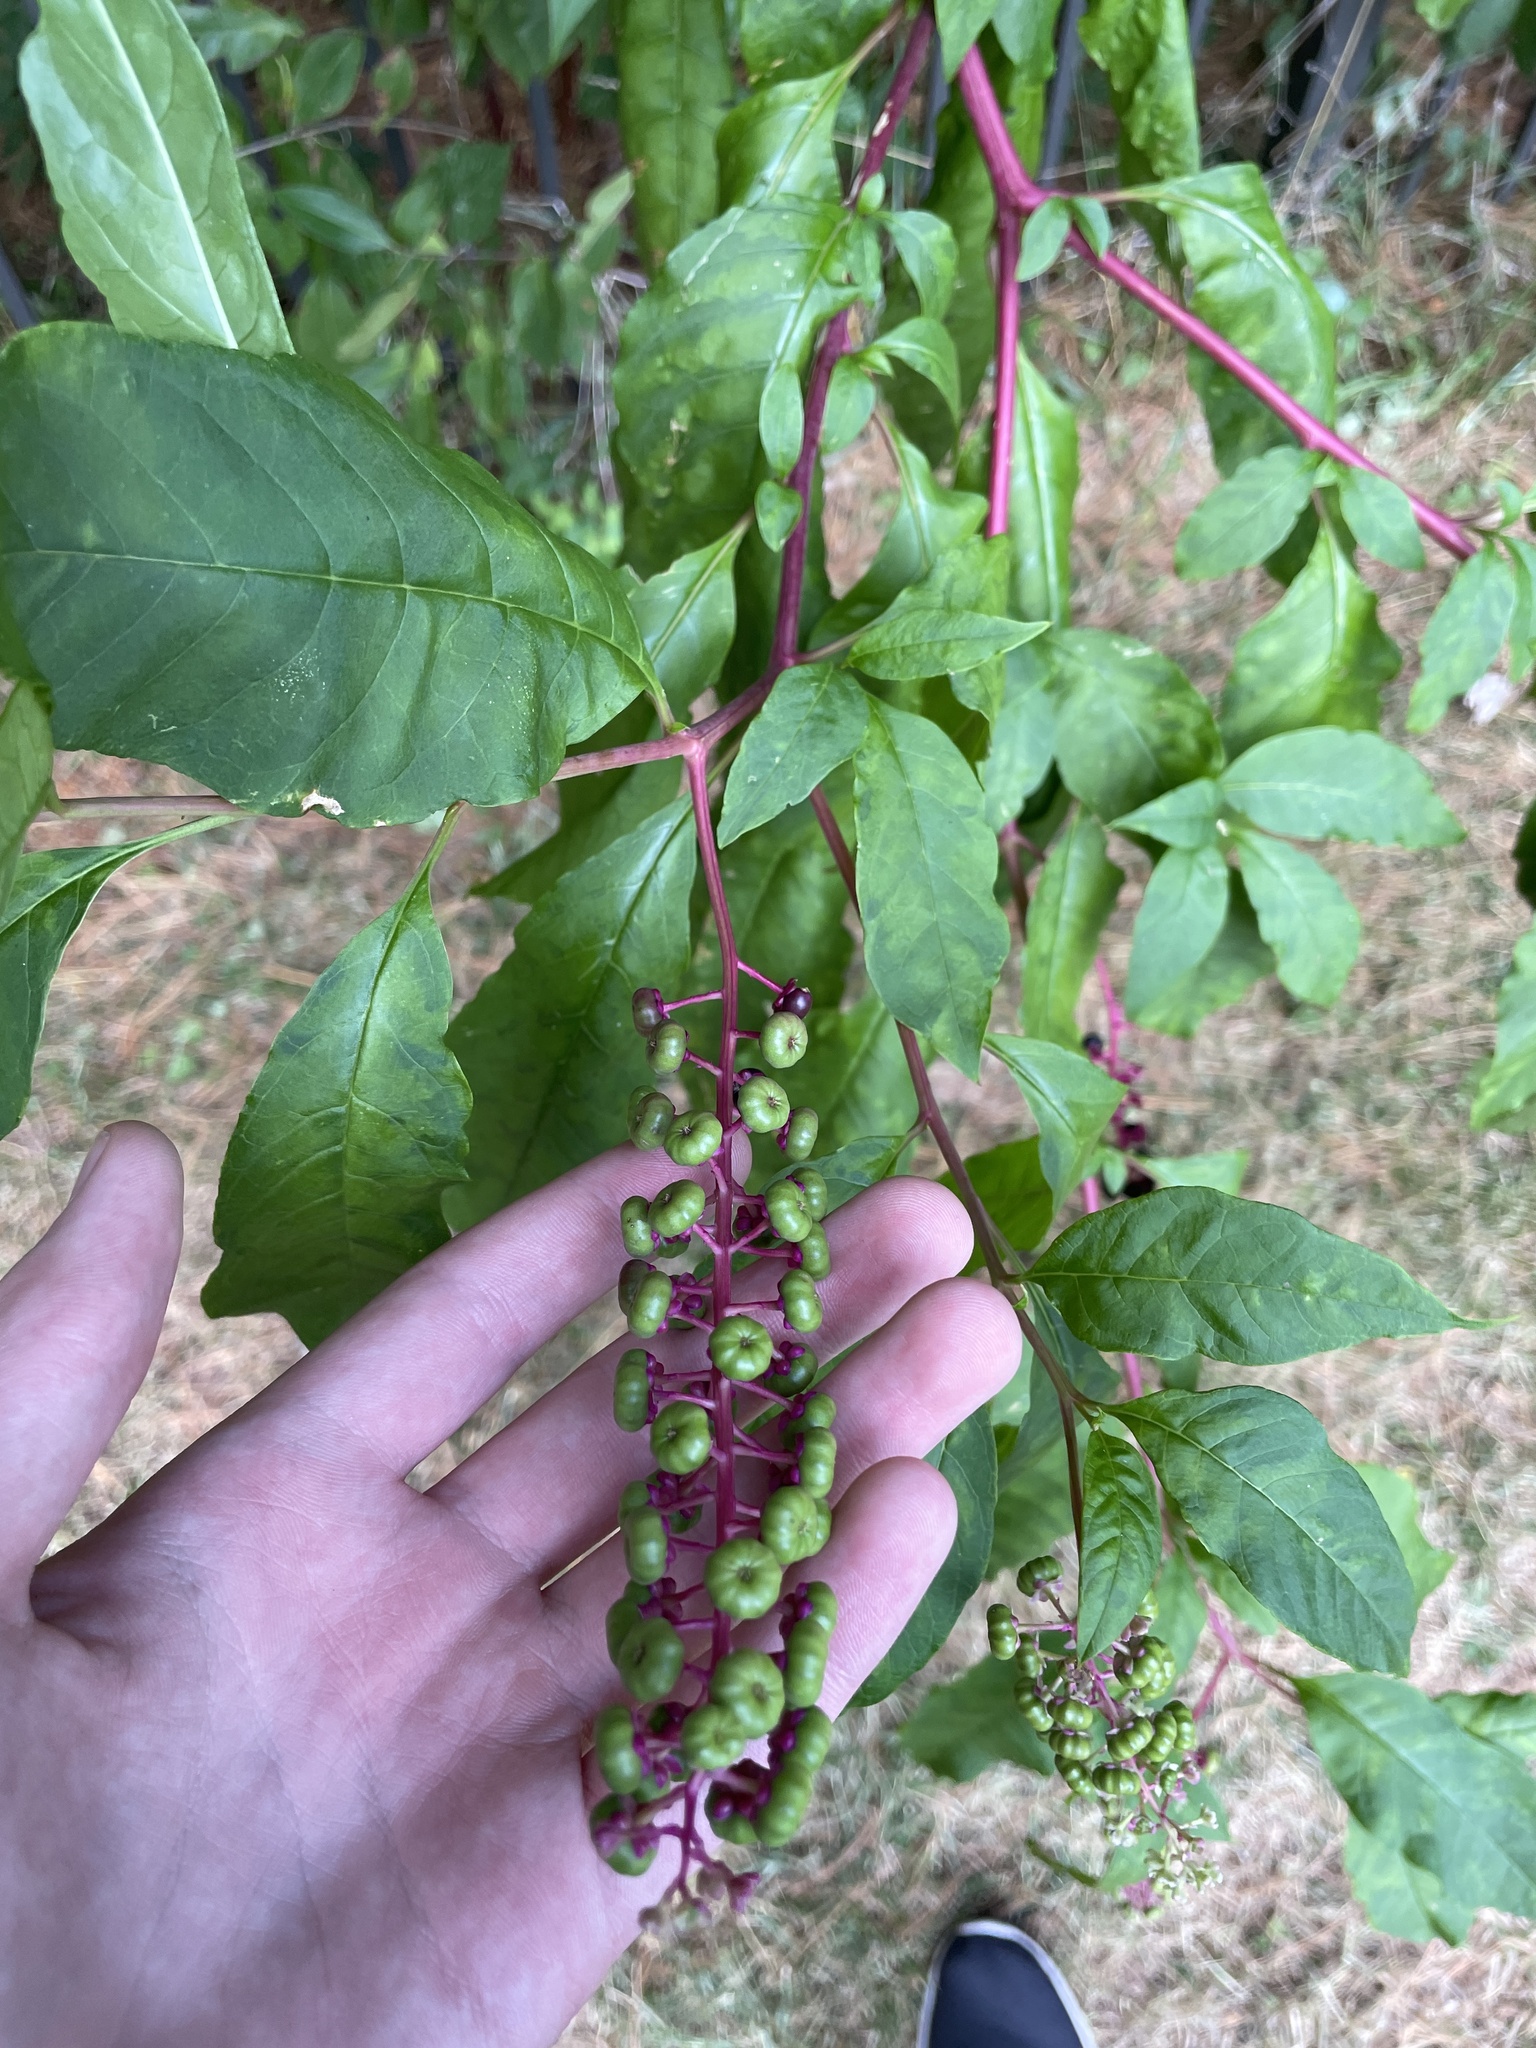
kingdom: Plantae
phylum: Tracheophyta
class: Magnoliopsida
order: Caryophyllales
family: Phytolaccaceae
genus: Phytolacca
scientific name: Phytolacca americana
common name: American pokeweed
